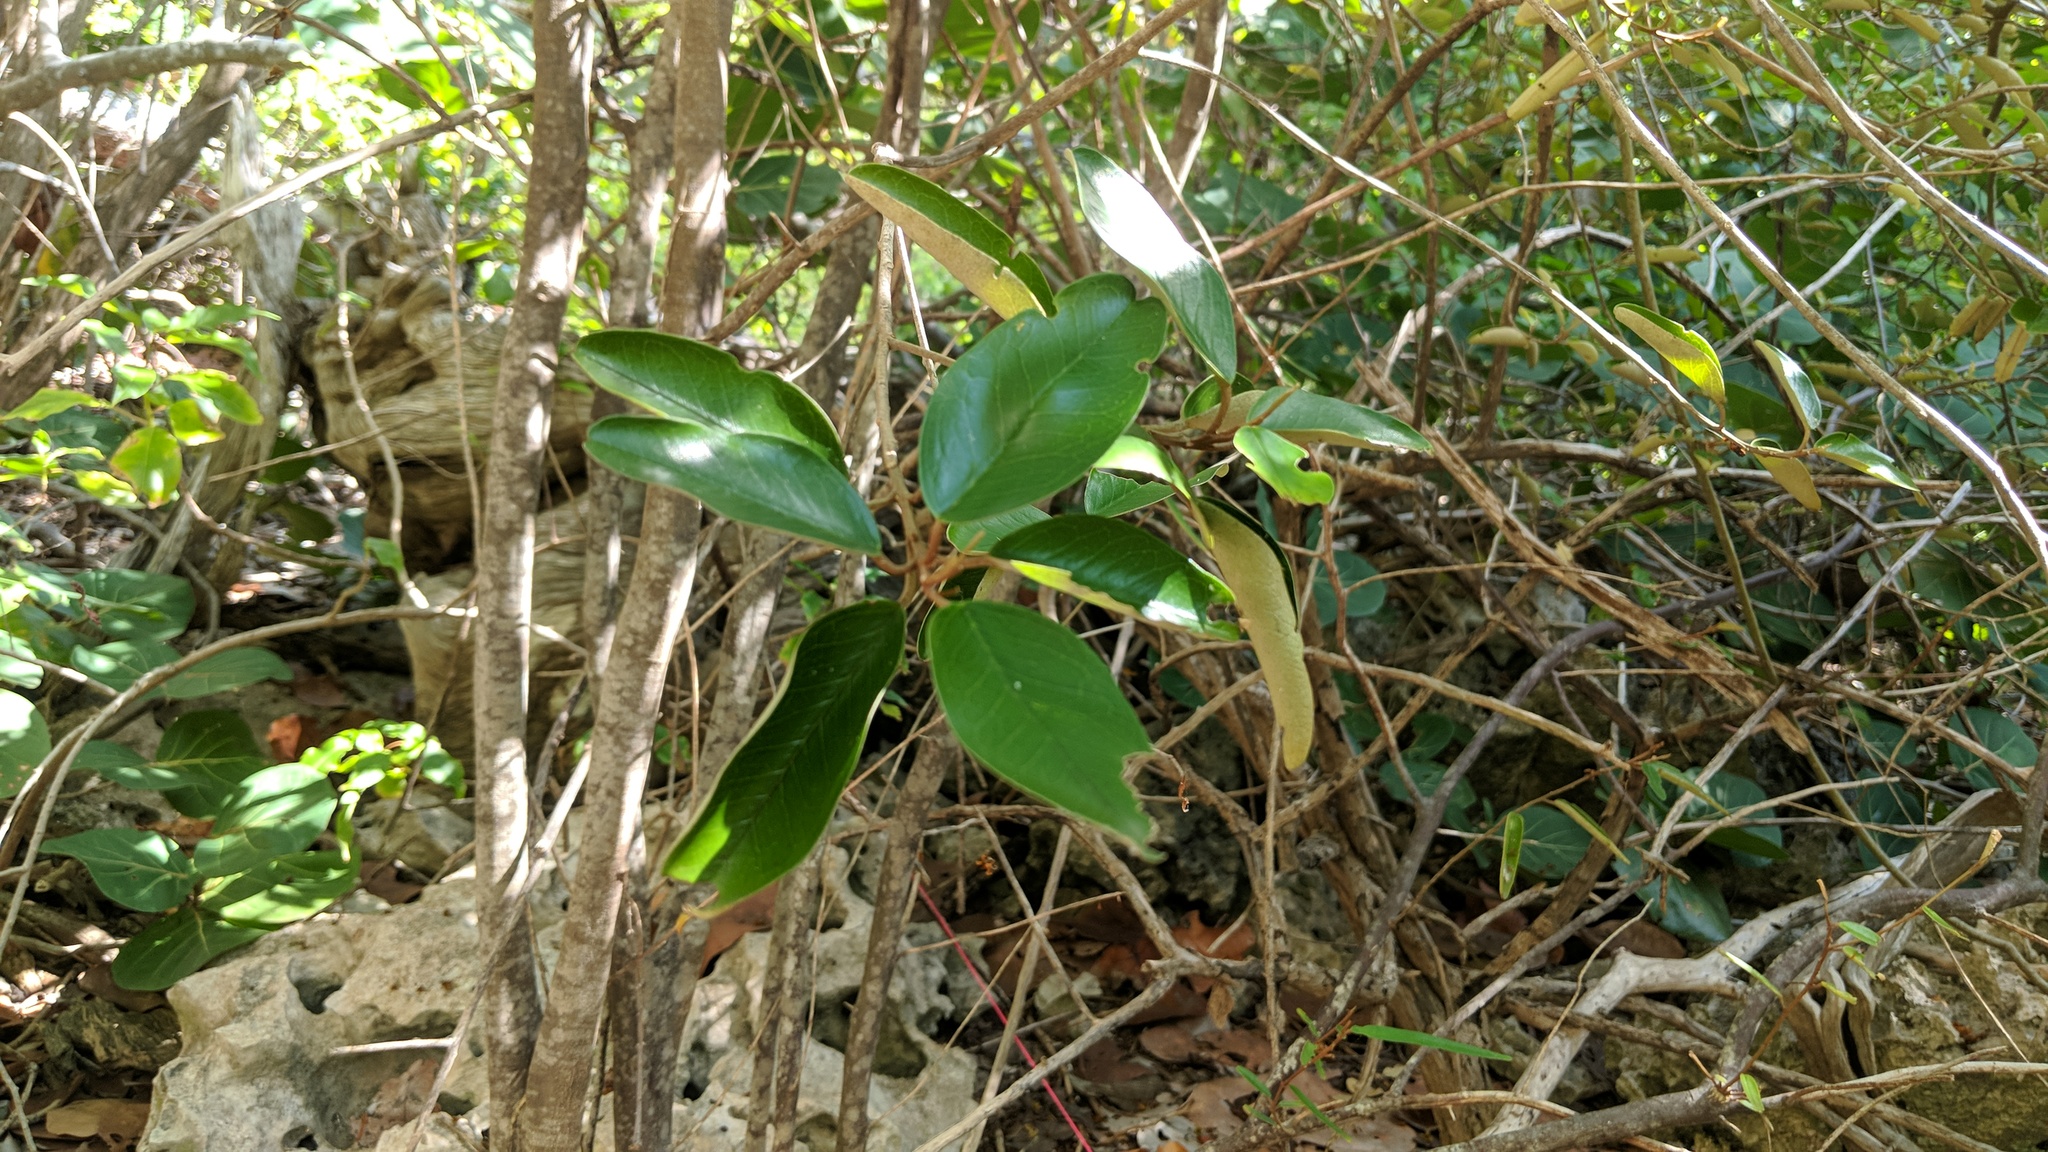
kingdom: Plantae
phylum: Tracheophyta
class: Magnoliopsida
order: Brassicales
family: Capparaceae
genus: Quadrella
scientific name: Quadrella cynophallophora
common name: Black willow
